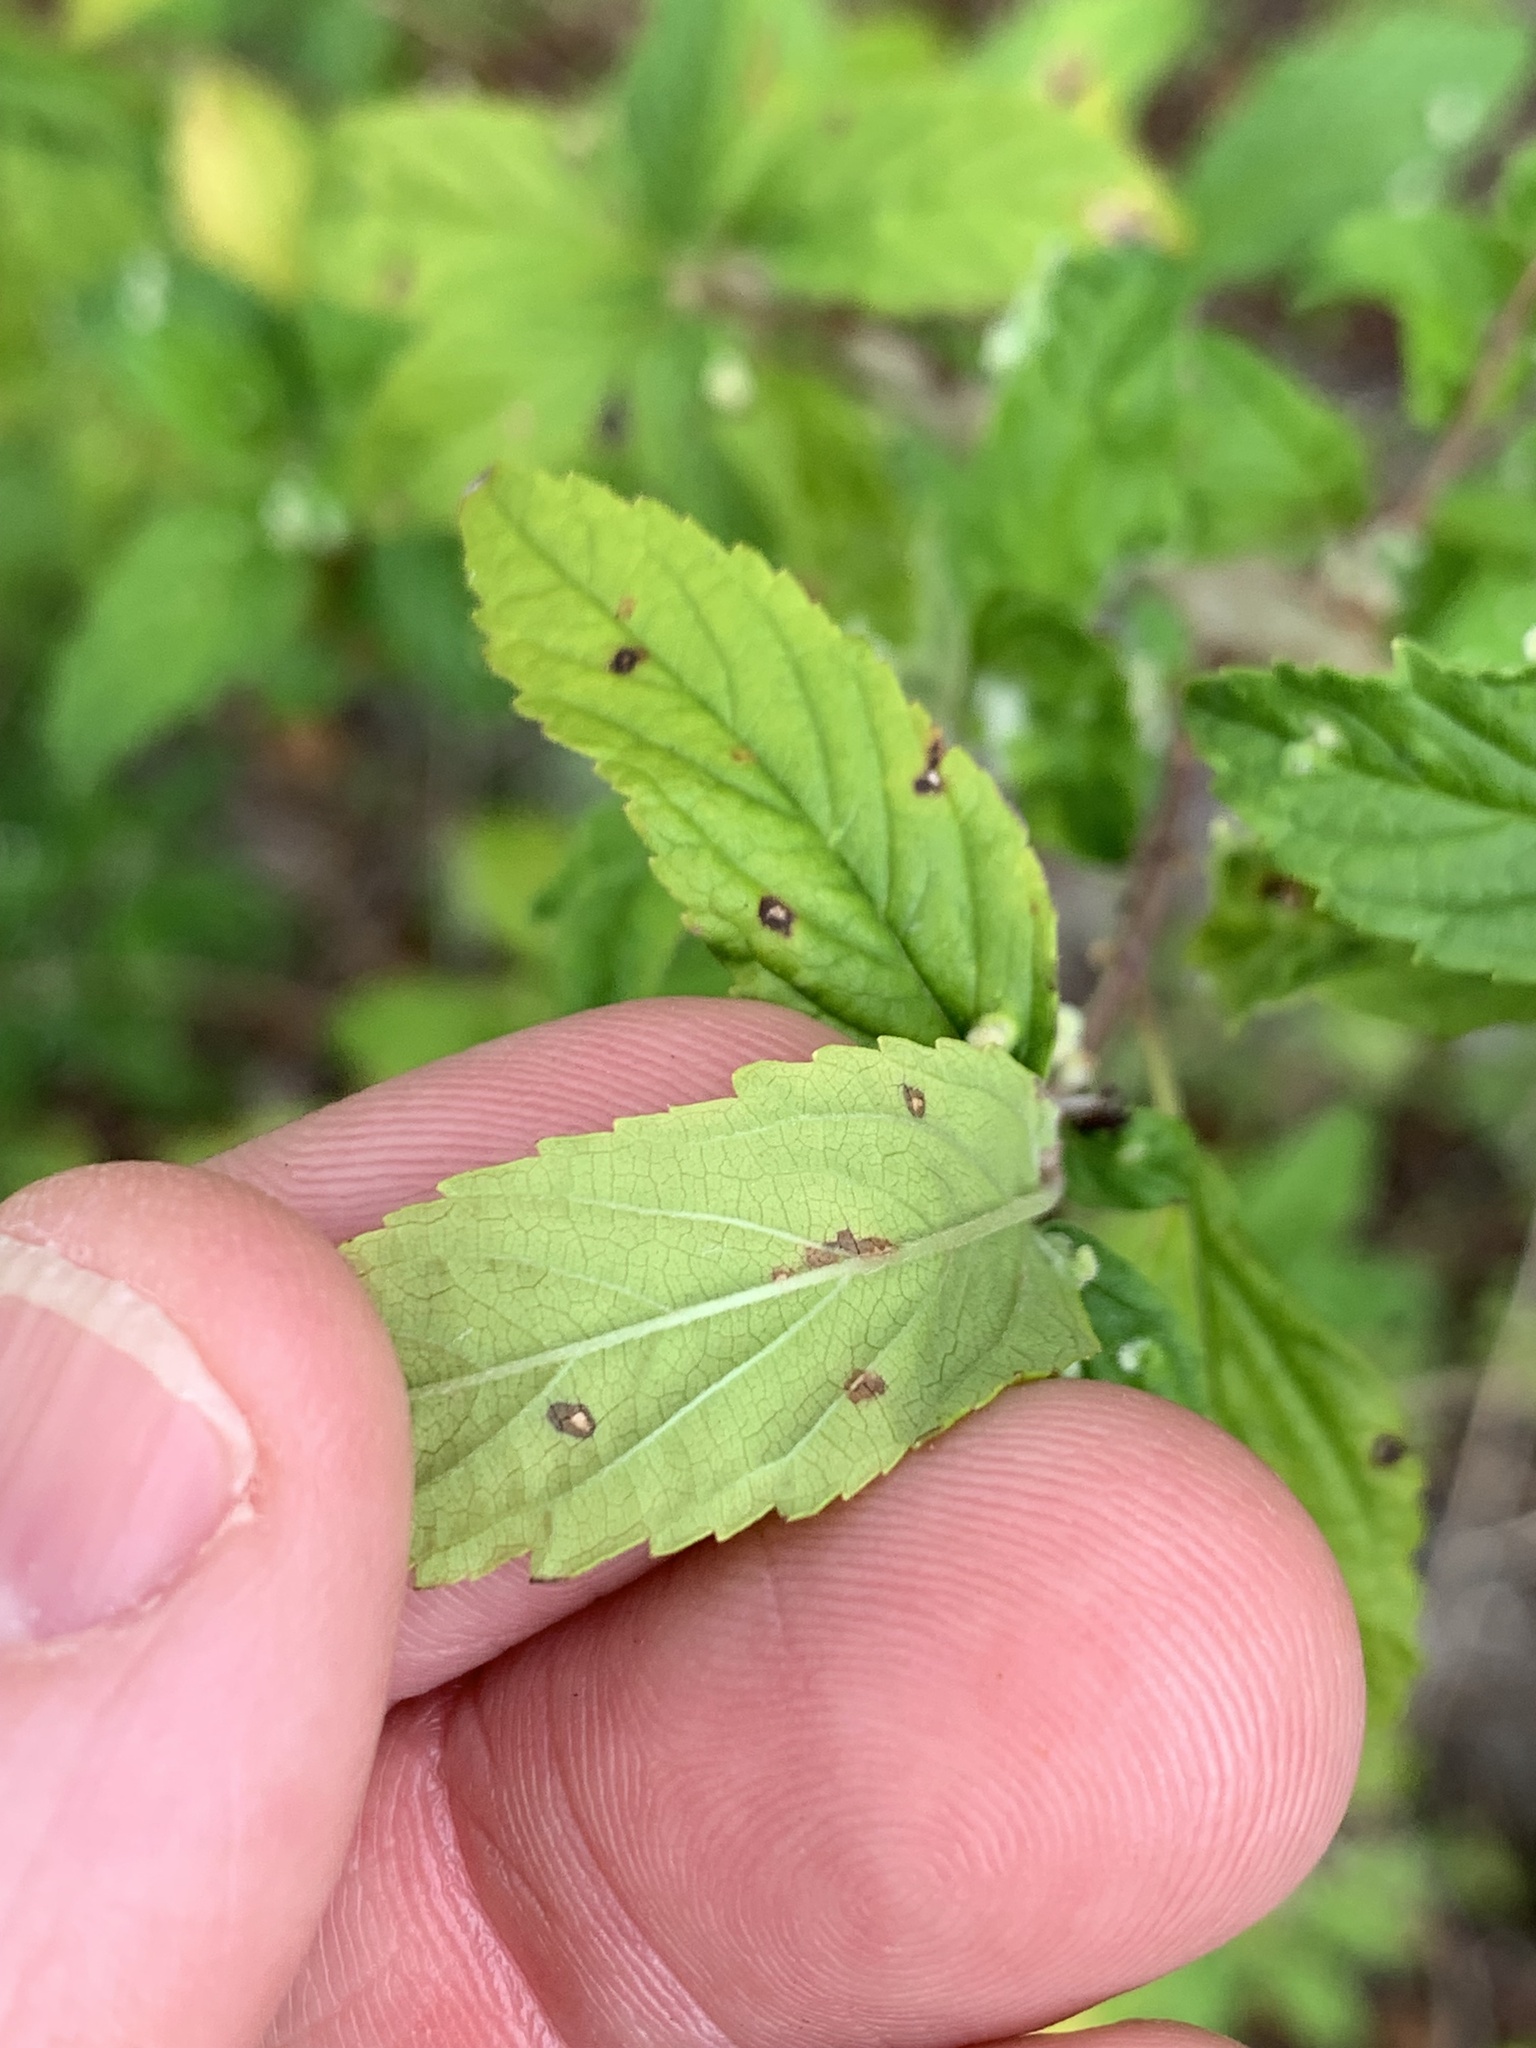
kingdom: Plantae
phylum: Tracheophyta
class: Magnoliopsida
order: Lamiales
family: Lamiaceae
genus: Condea
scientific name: Condea verticillata
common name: John charles
